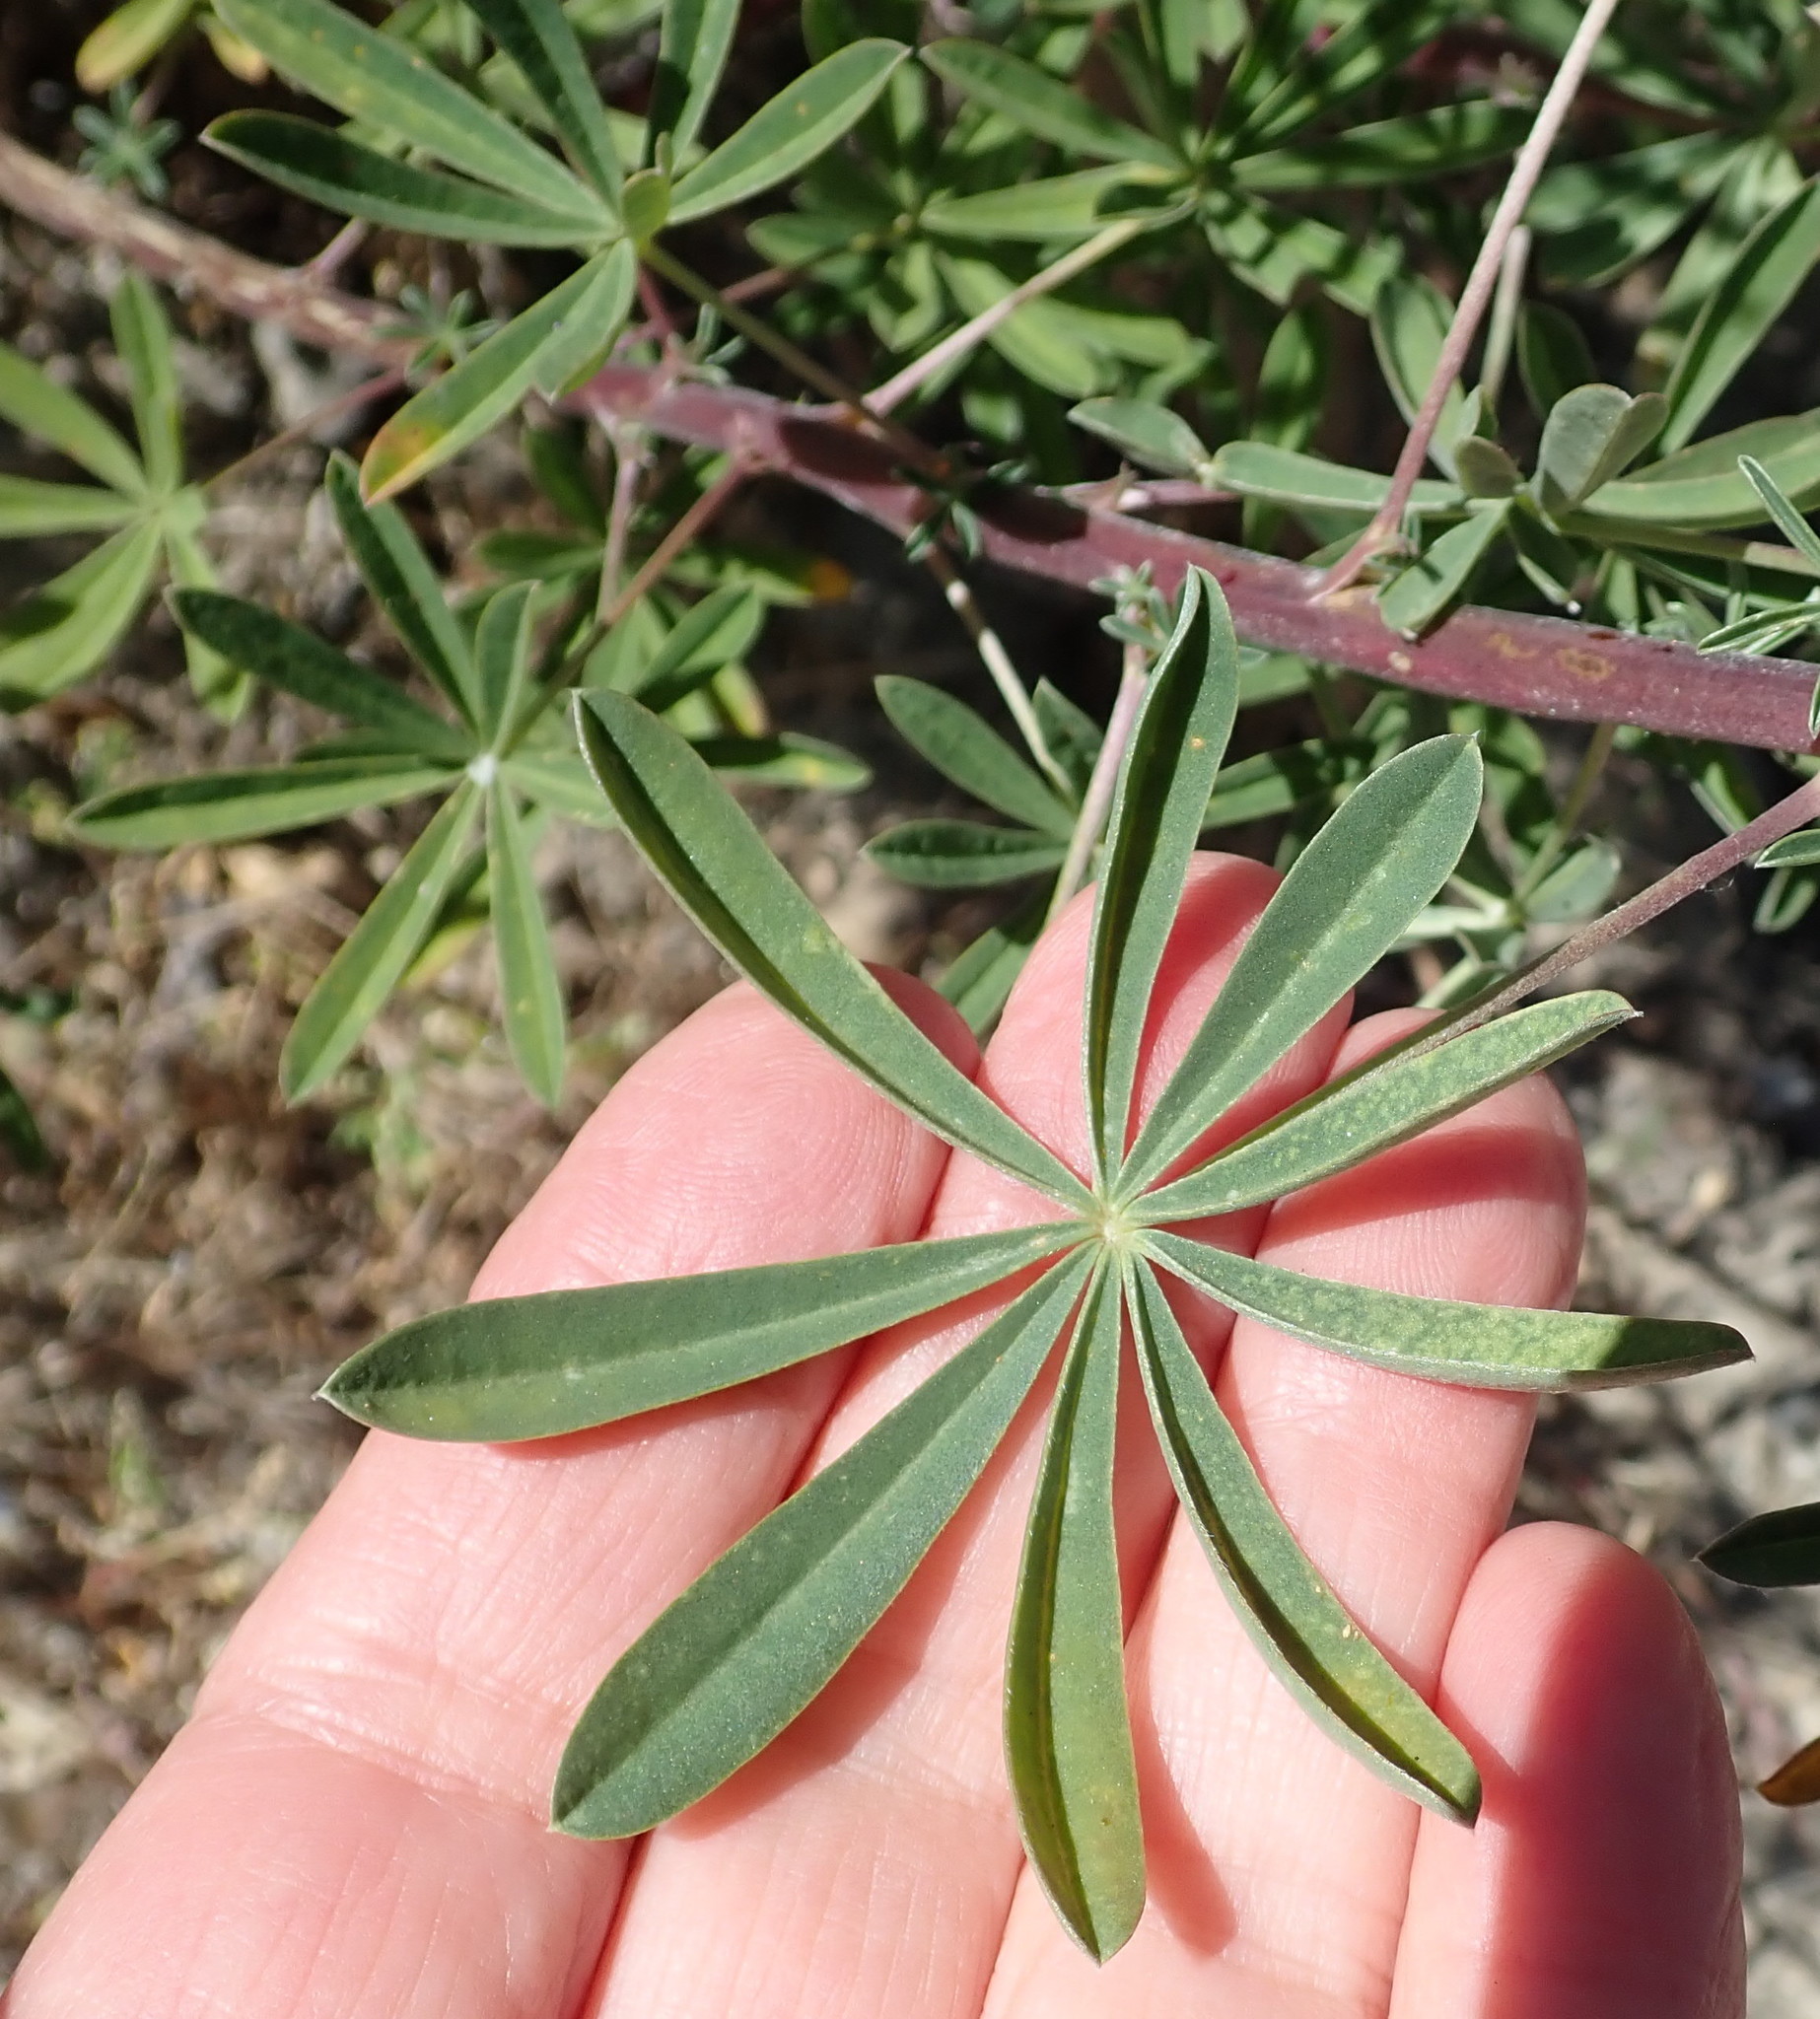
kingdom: Plantae
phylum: Tracheophyta
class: Magnoliopsida
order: Fabales
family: Fabaceae
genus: Lupinus
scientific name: Lupinus arboreus
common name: Yellow bush lupine
